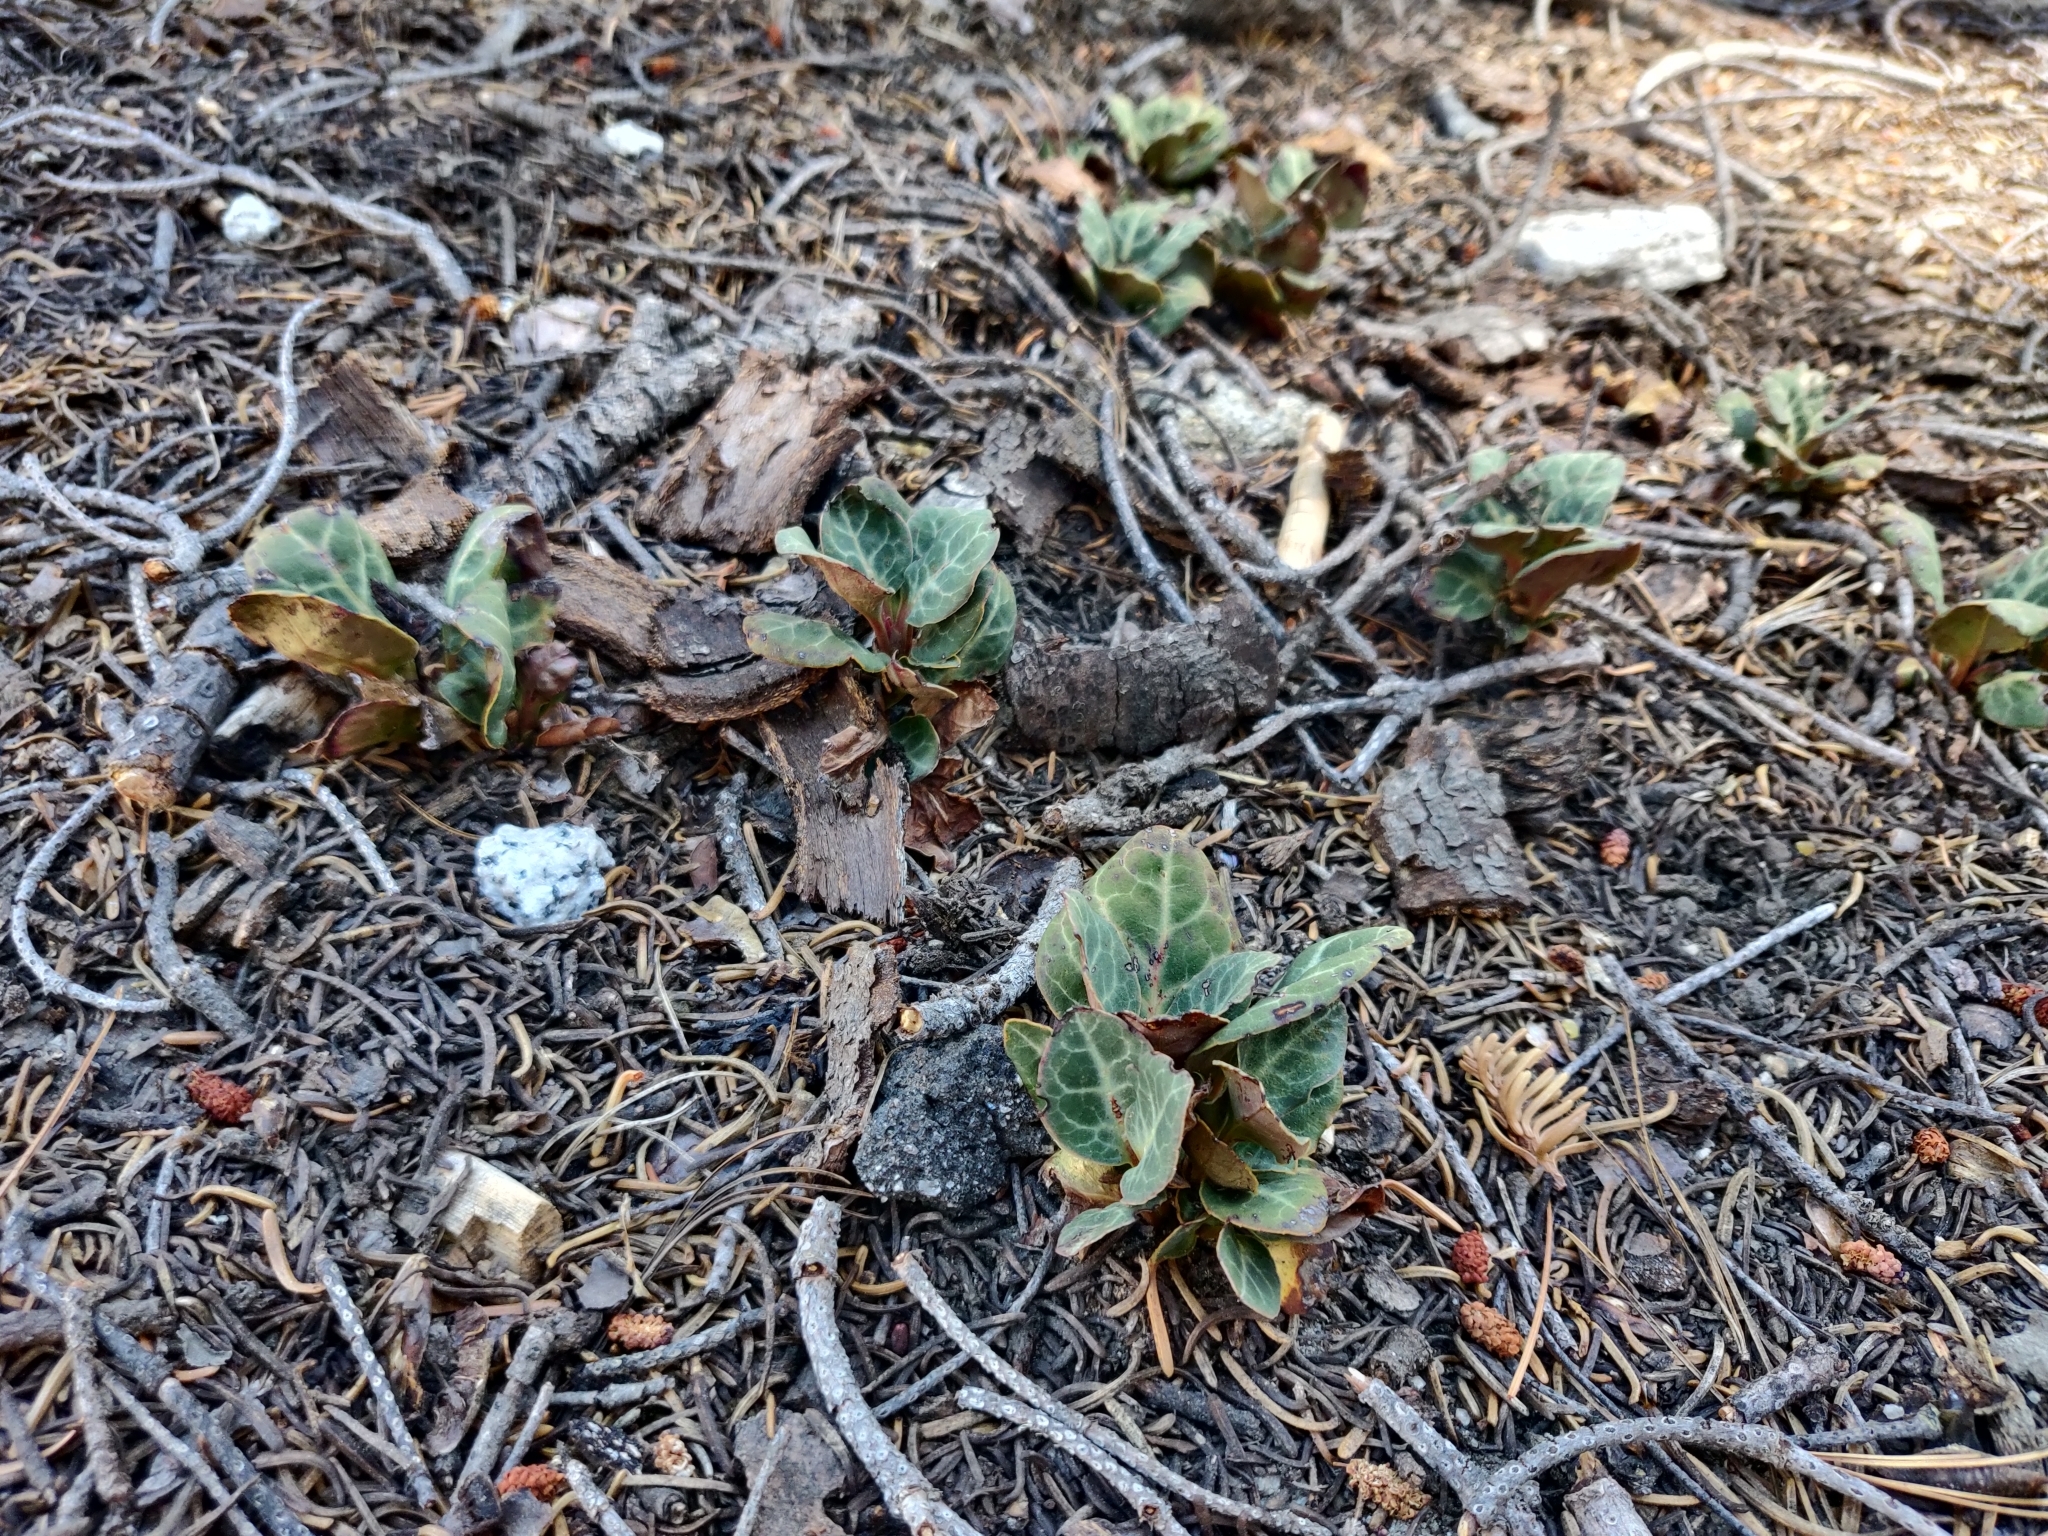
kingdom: Plantae
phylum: Tracheophyta
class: Magnoliopsida
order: Ericales
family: Ericaceae
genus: Pyrola
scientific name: Pyrola picta
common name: White-vein wintergreen
